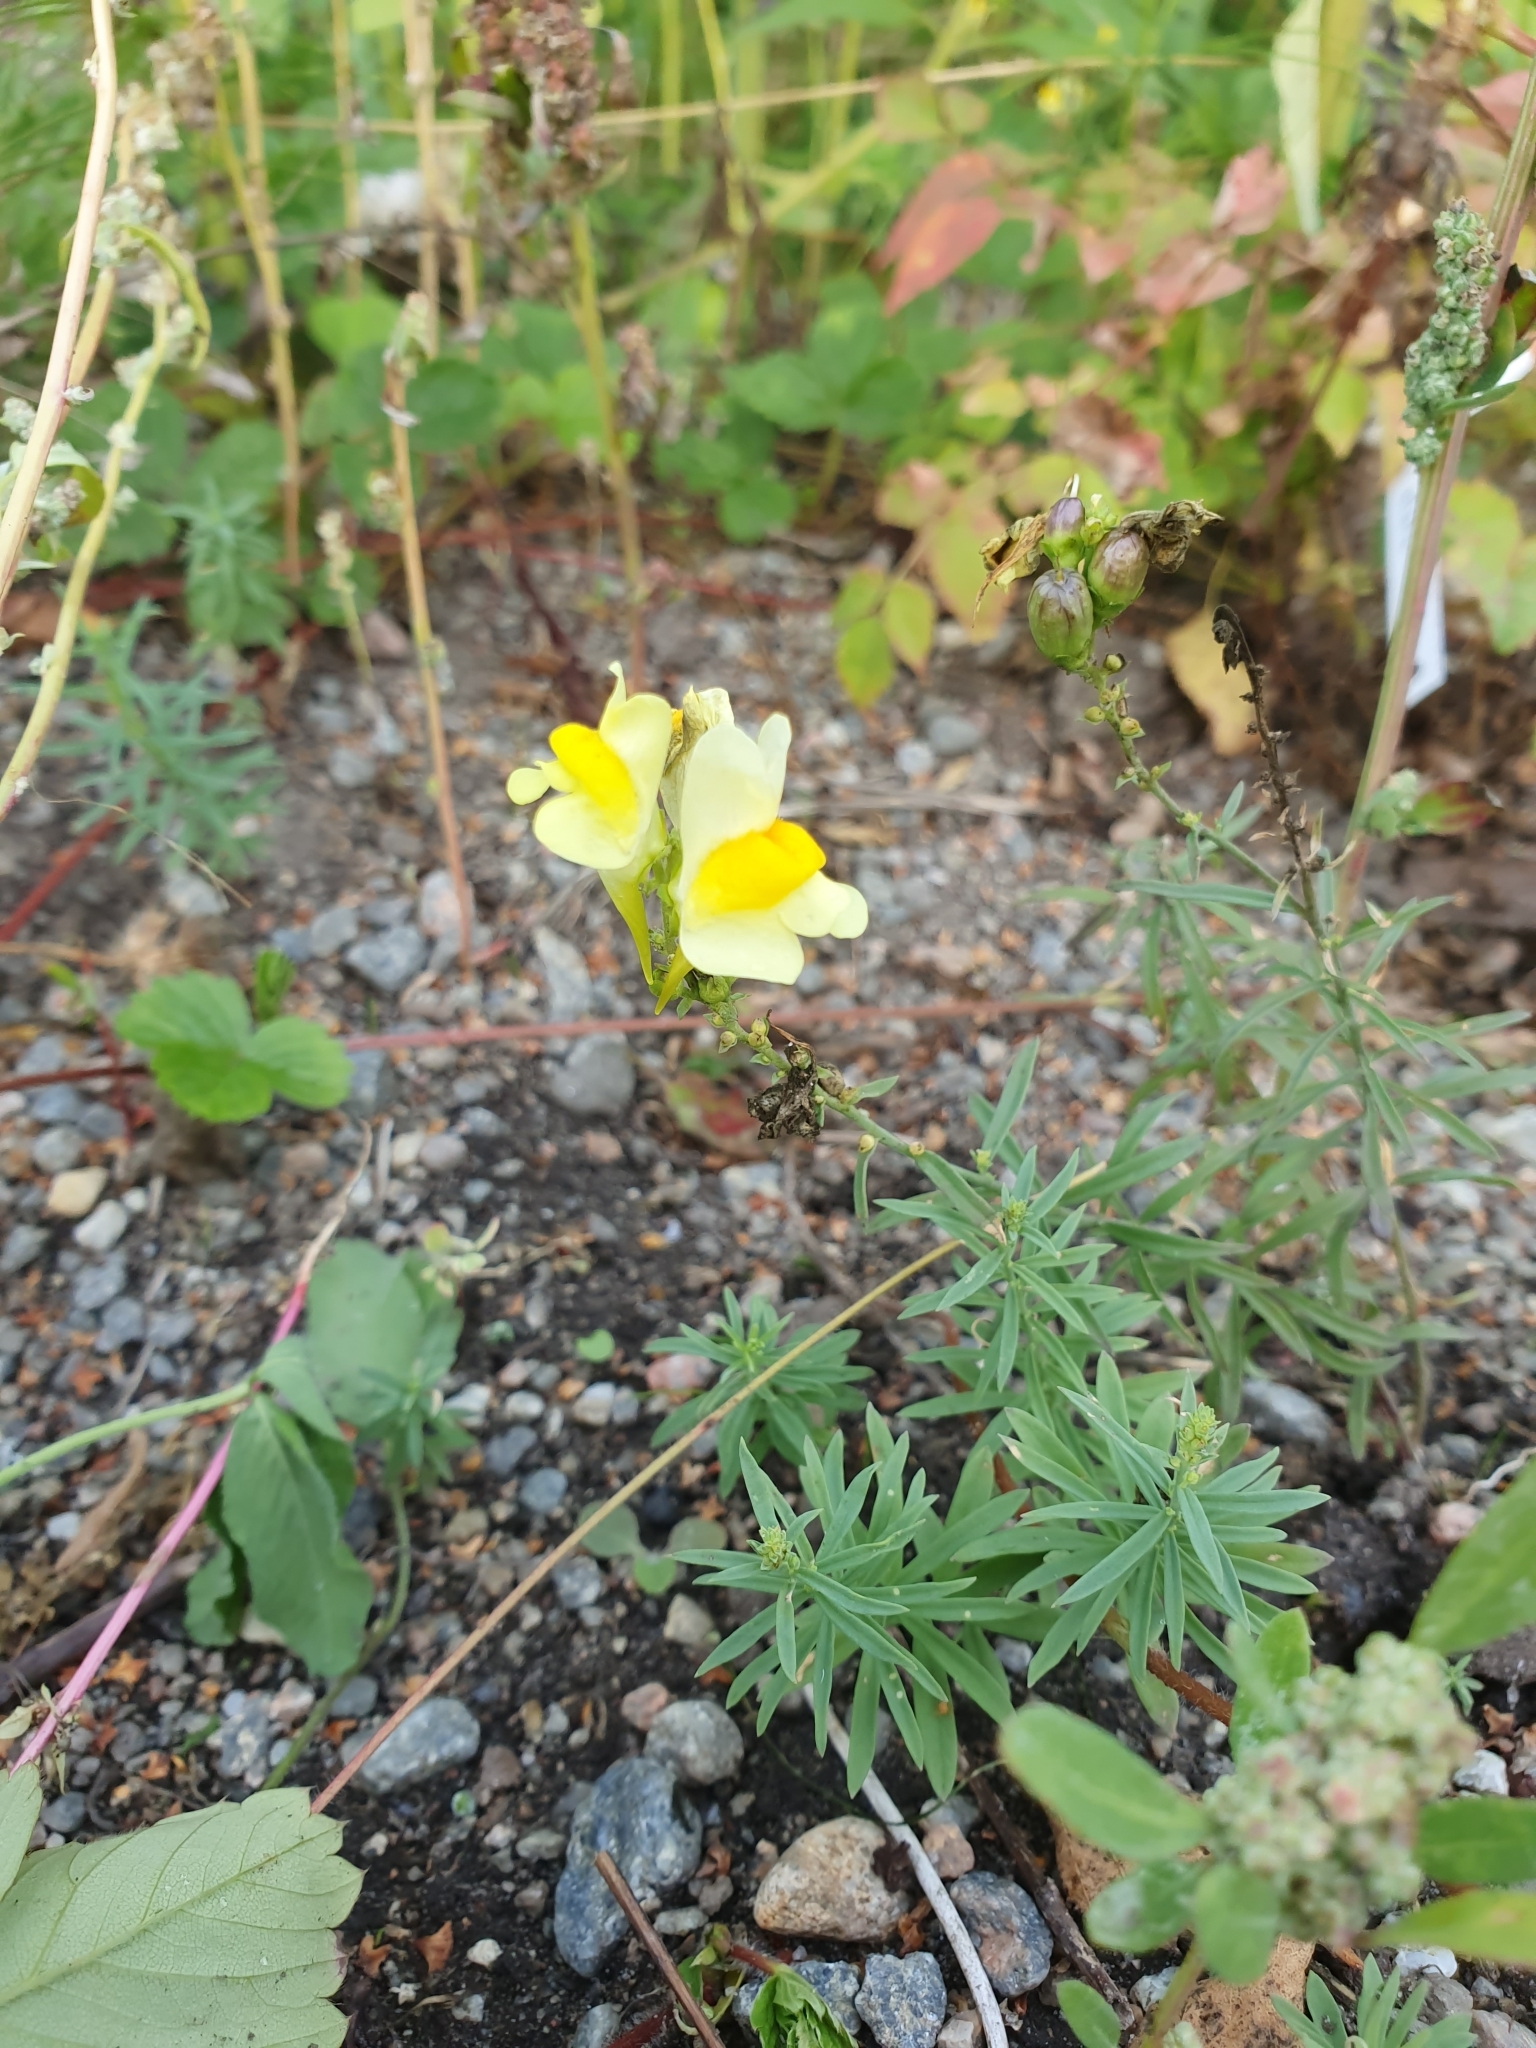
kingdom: Plantae
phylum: Tracheophyta
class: Magnoliopsida
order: Lamiales
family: Plantaginaceae
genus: Linaria
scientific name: Linaria vulgaris
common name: Butter and eggs
